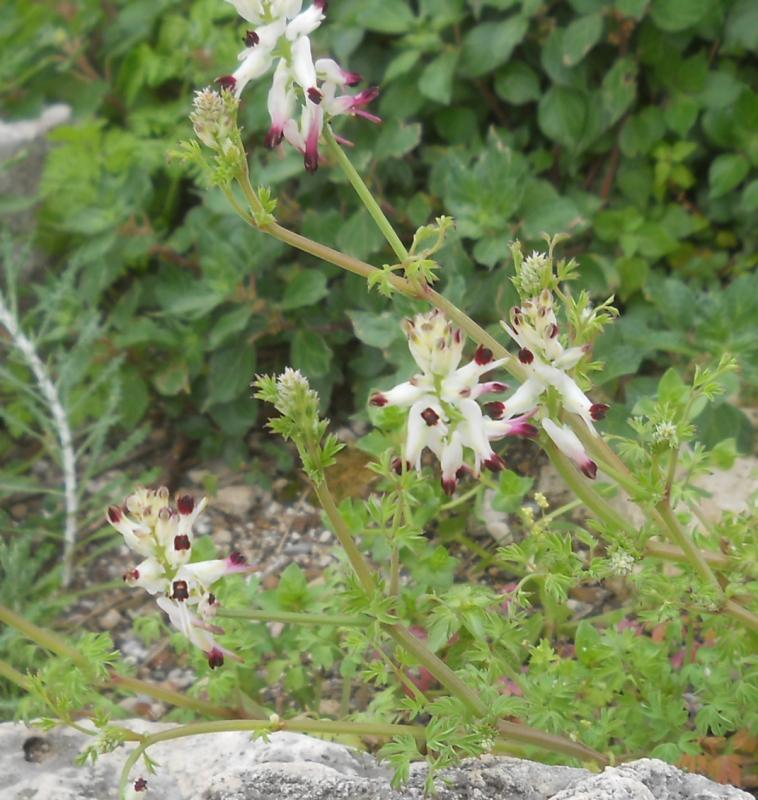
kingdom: Plantae
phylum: Tracheophyta
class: Magnoliopsida
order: Ranunculales
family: Papaveraceae
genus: Fumaria
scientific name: Fumaria capreolata
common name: White ramping-fumitory
